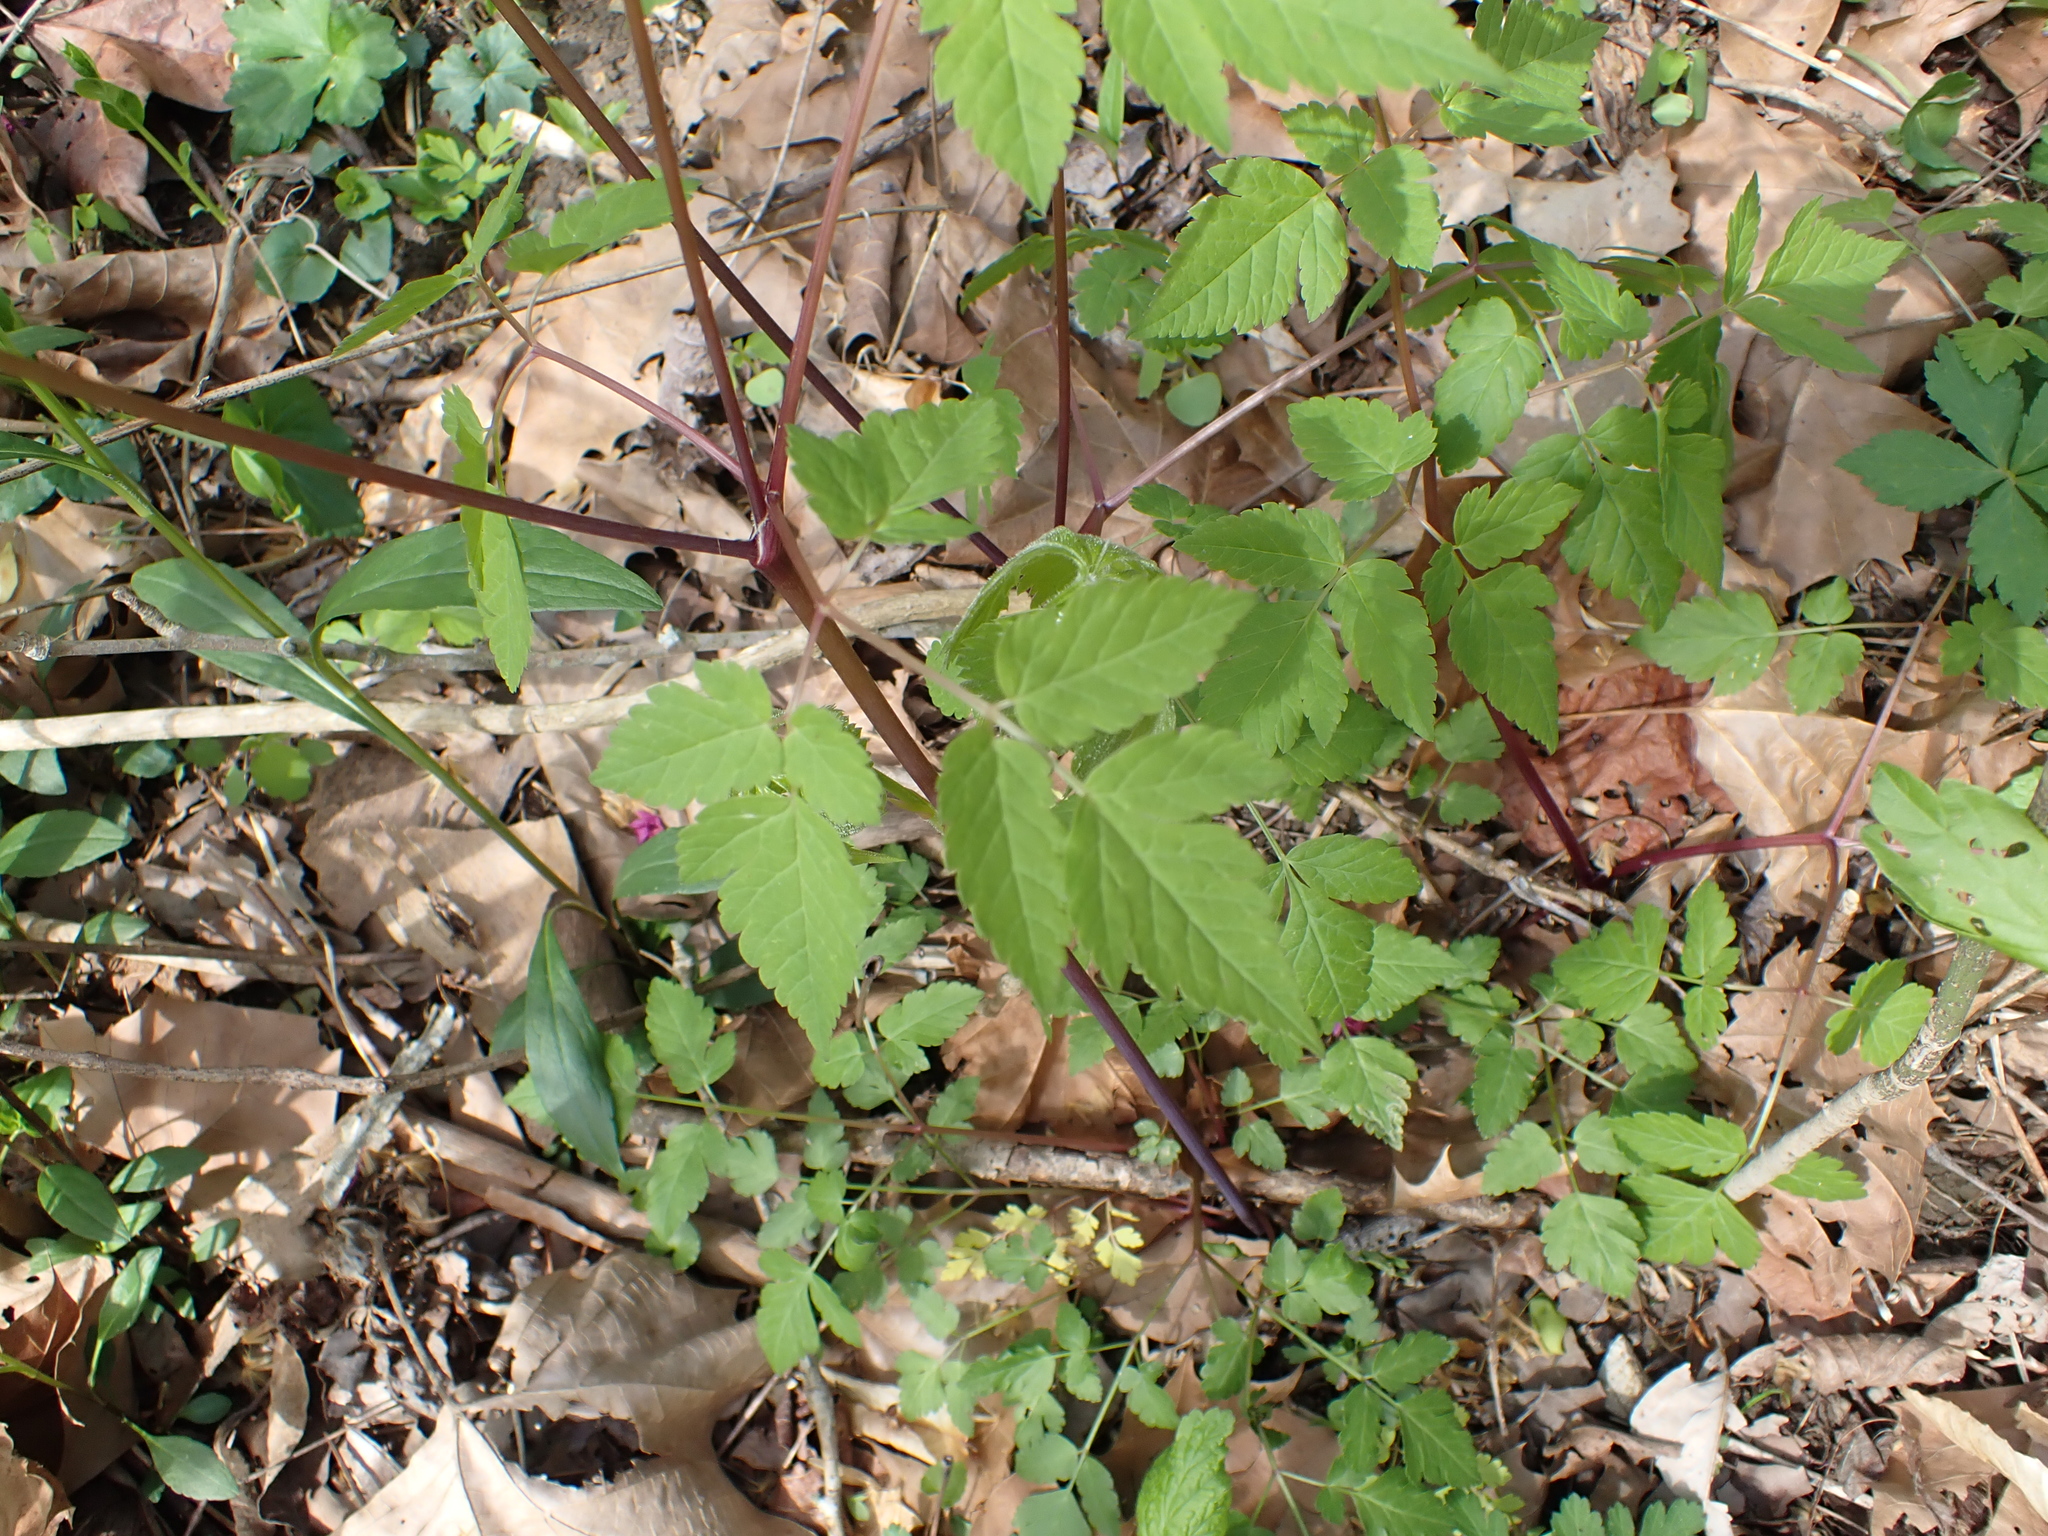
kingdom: Plantae
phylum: Tracheophyta
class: Magnoliopsida
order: Apiales
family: Apiaceae
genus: Osmorhiza
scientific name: Osmorhiza longistylis
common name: Smooth sweet cicely
